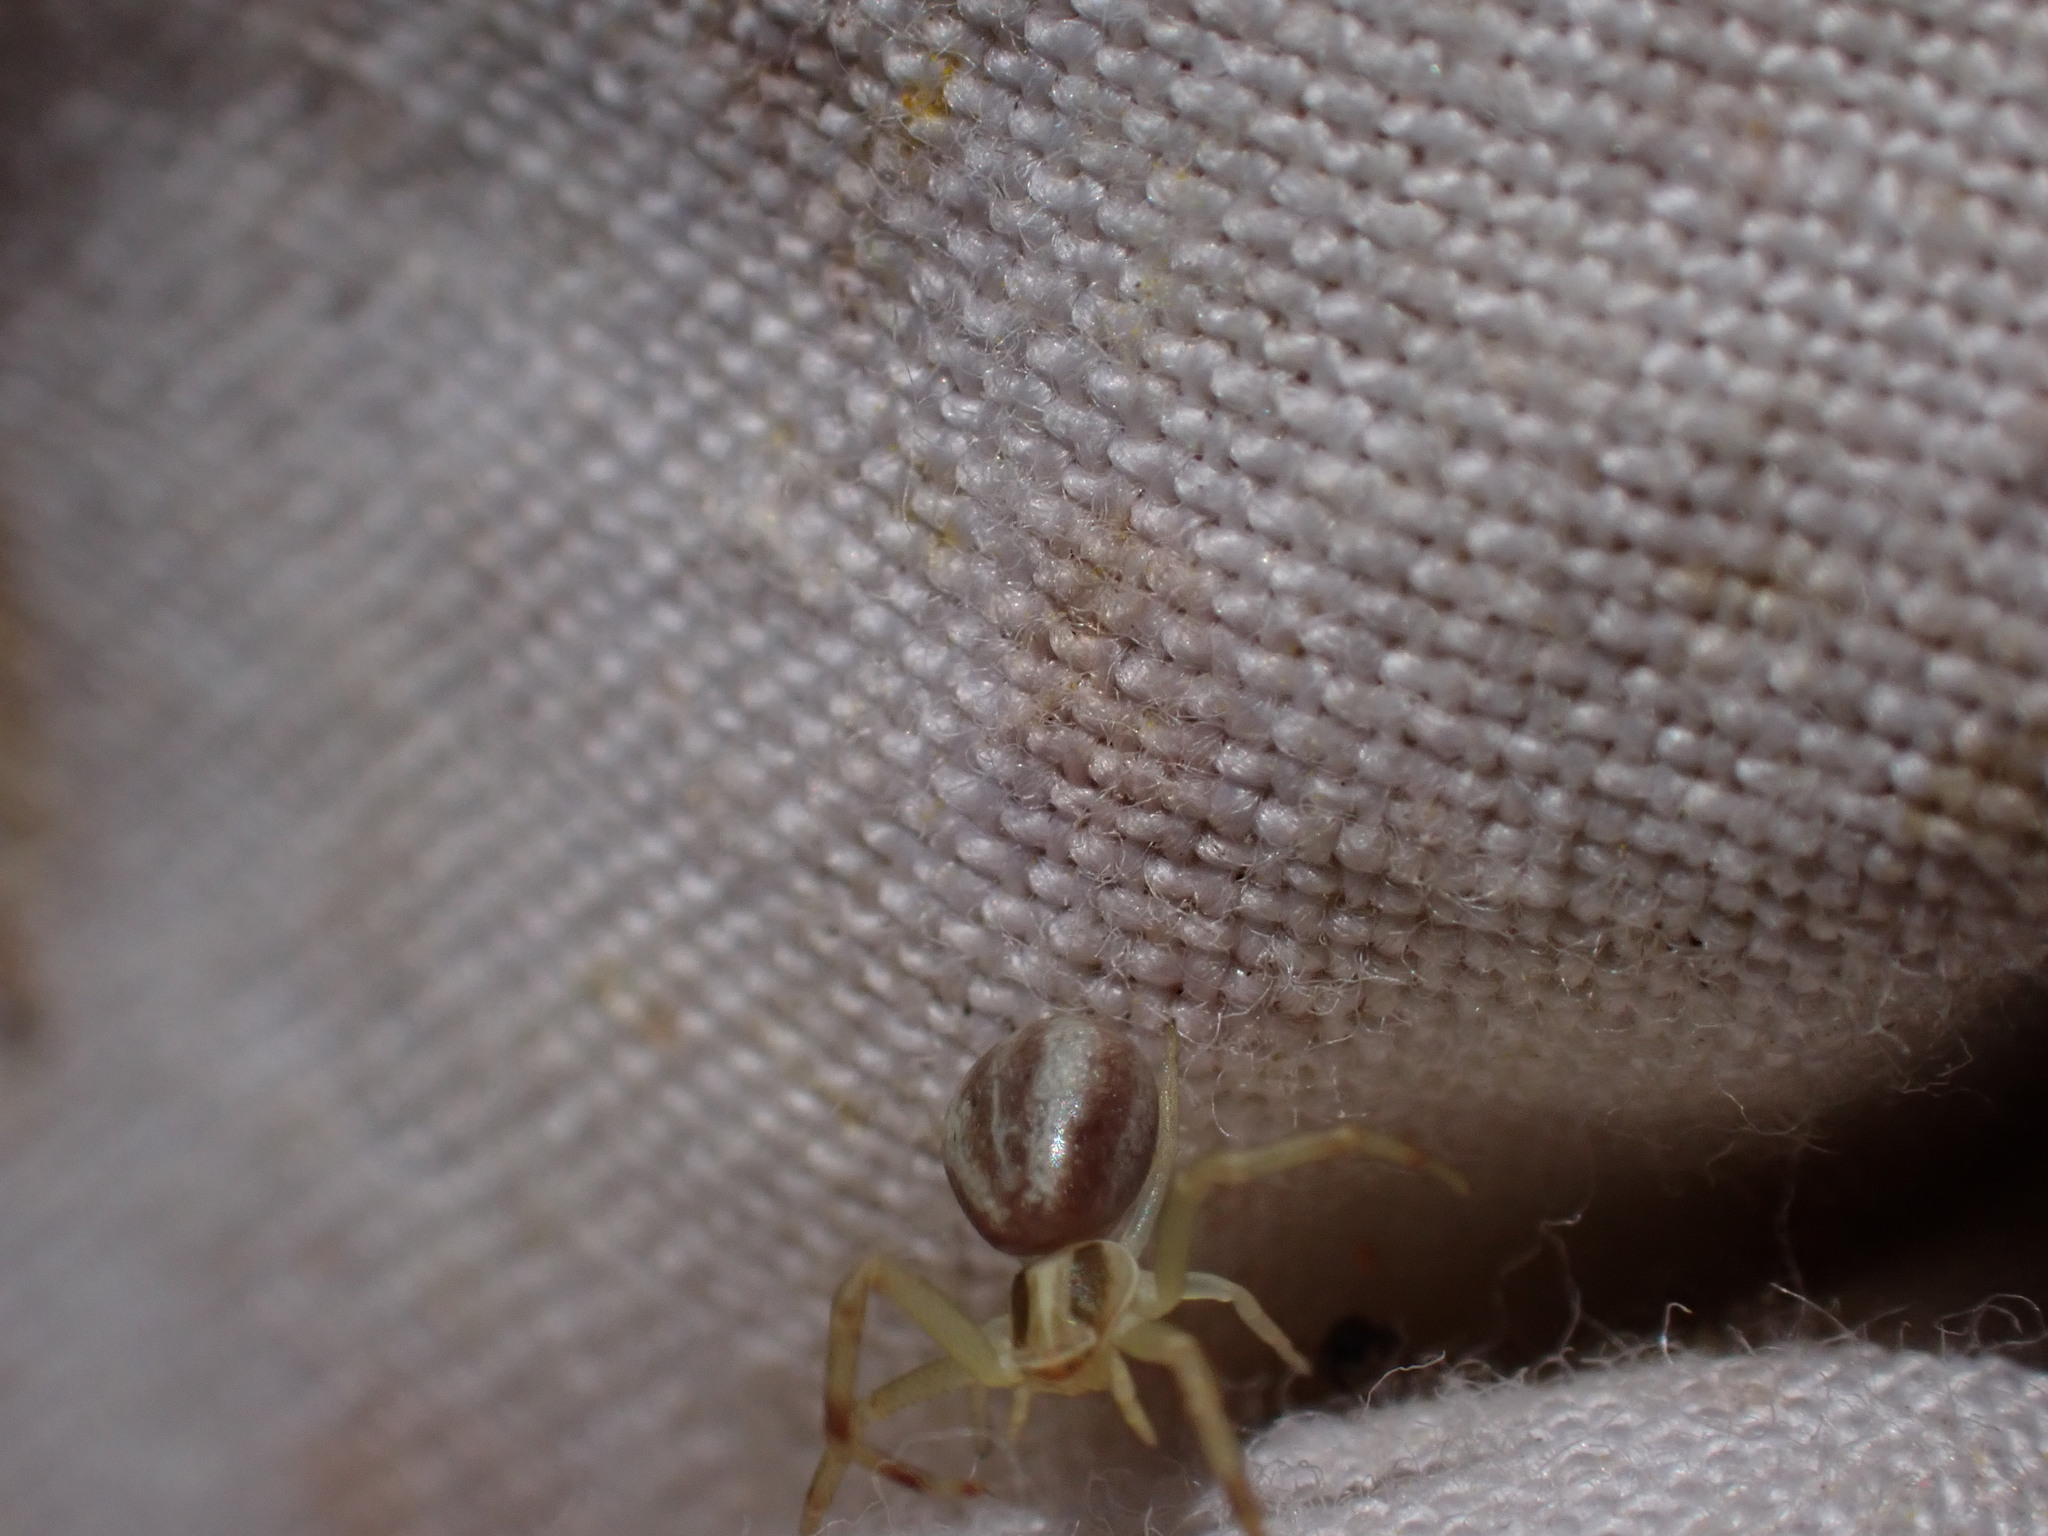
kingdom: Animalia
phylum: Arthropoda
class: Arachnida
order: Araneae
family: Thomisidae
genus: Runcinia
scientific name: Runcinia grammica
